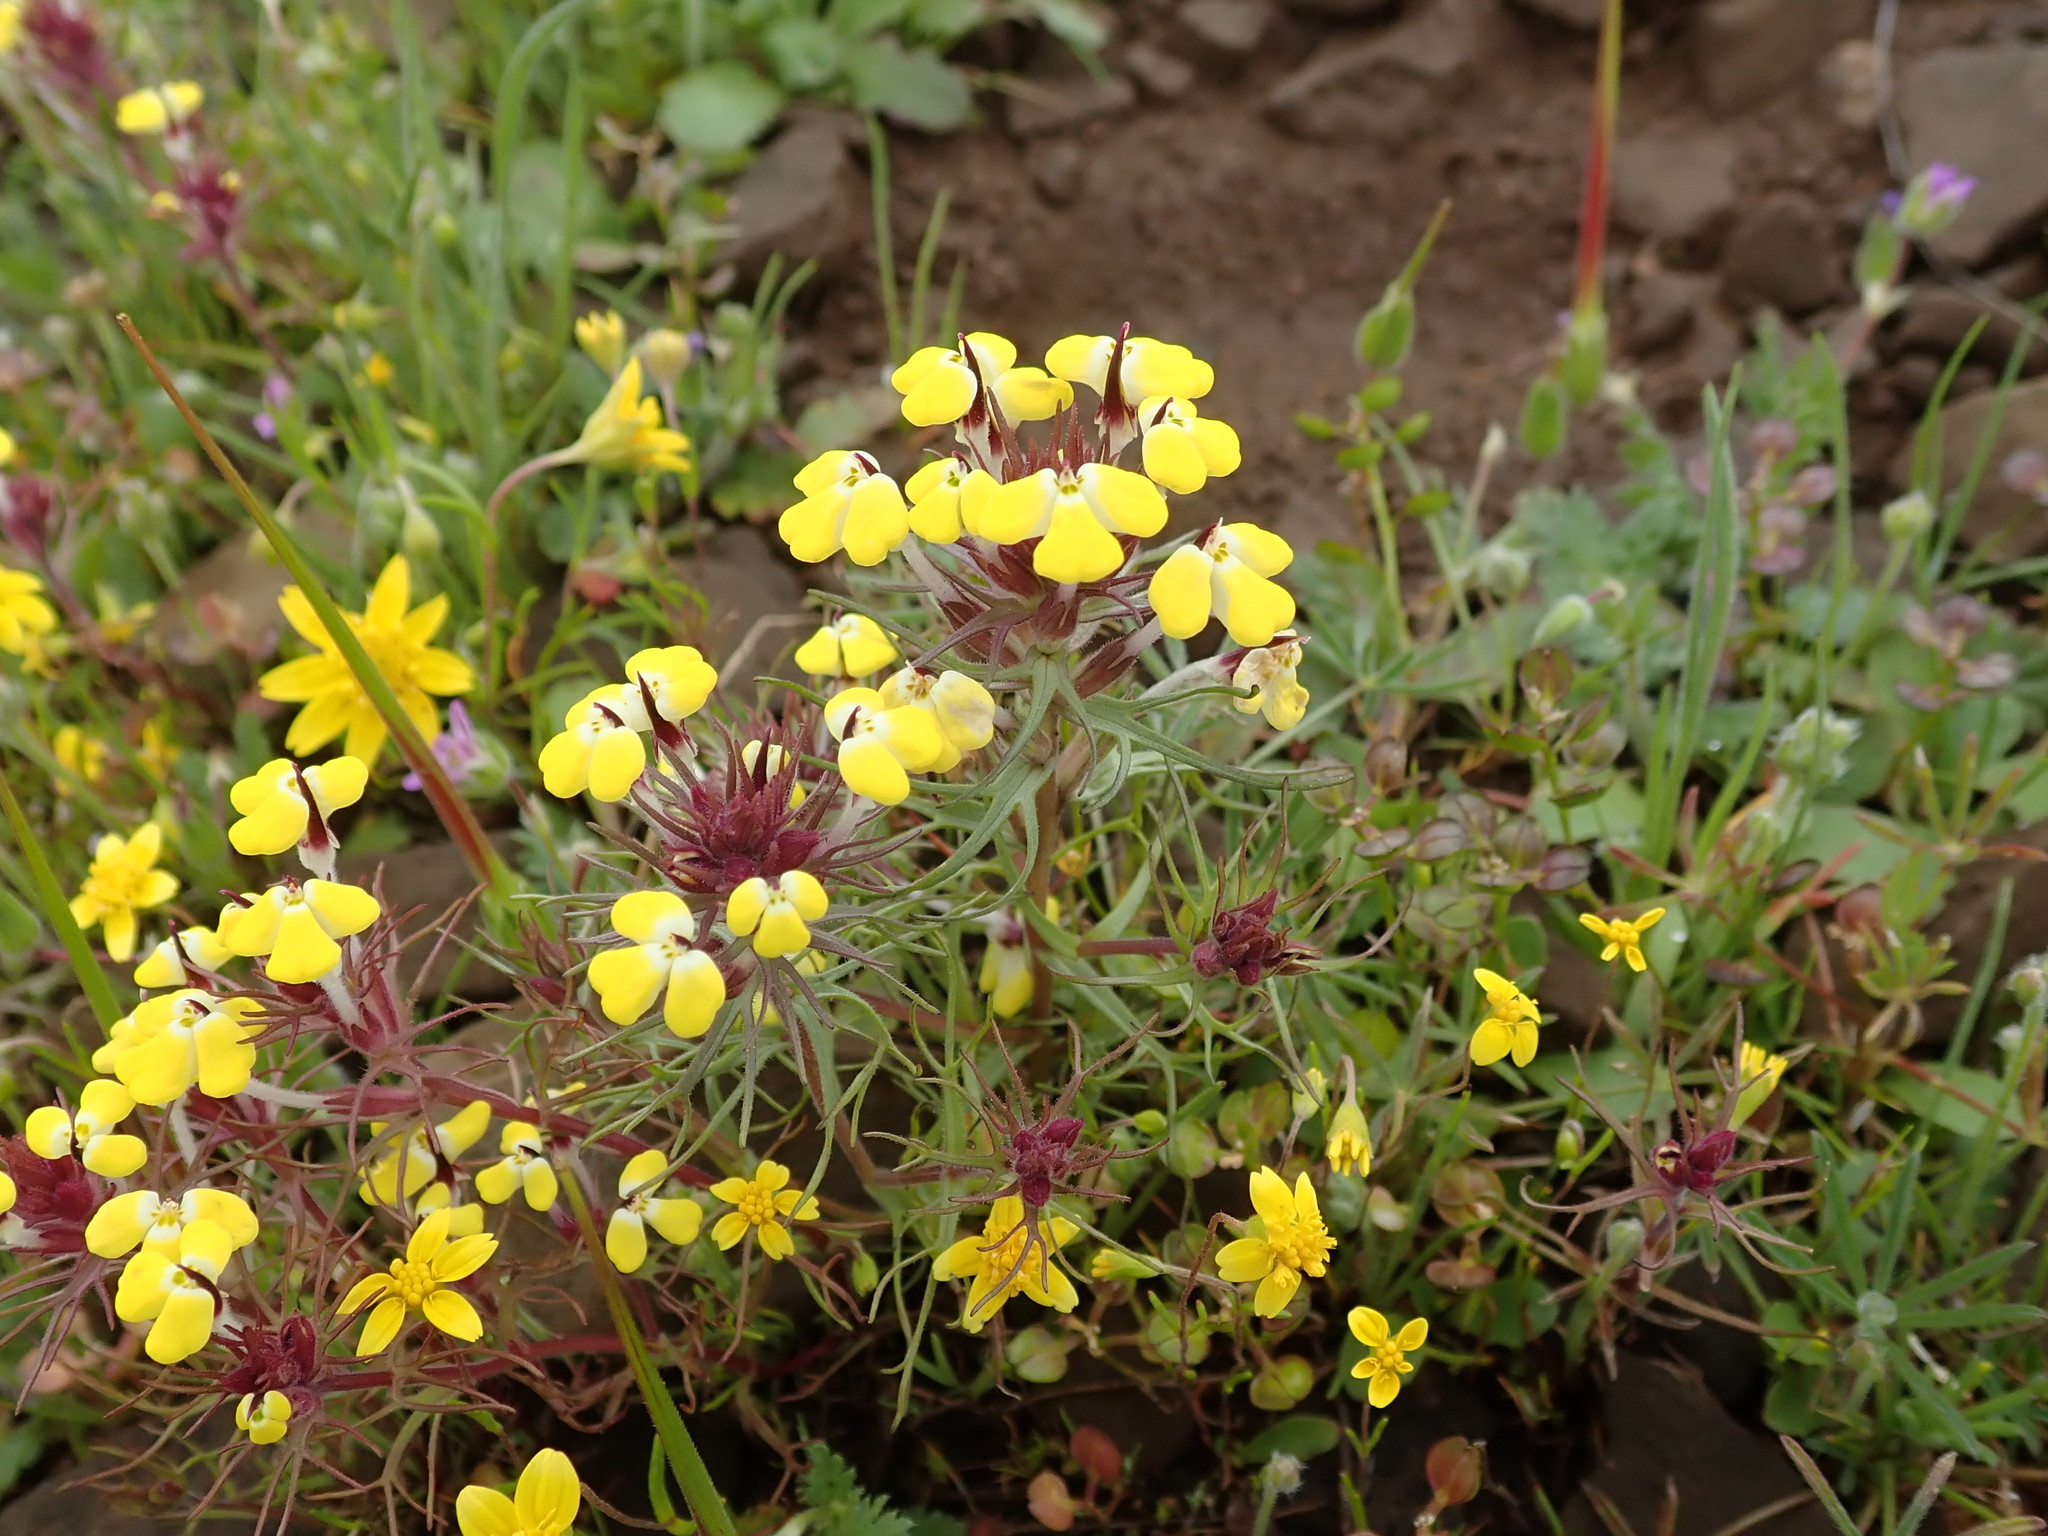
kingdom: Plantae
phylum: Tracheophyta
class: Magnoliopsida
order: Lamiales
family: Orobanchaceae
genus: Triphysaria
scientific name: Triphysaria eriantha
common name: Johnny-tuck
